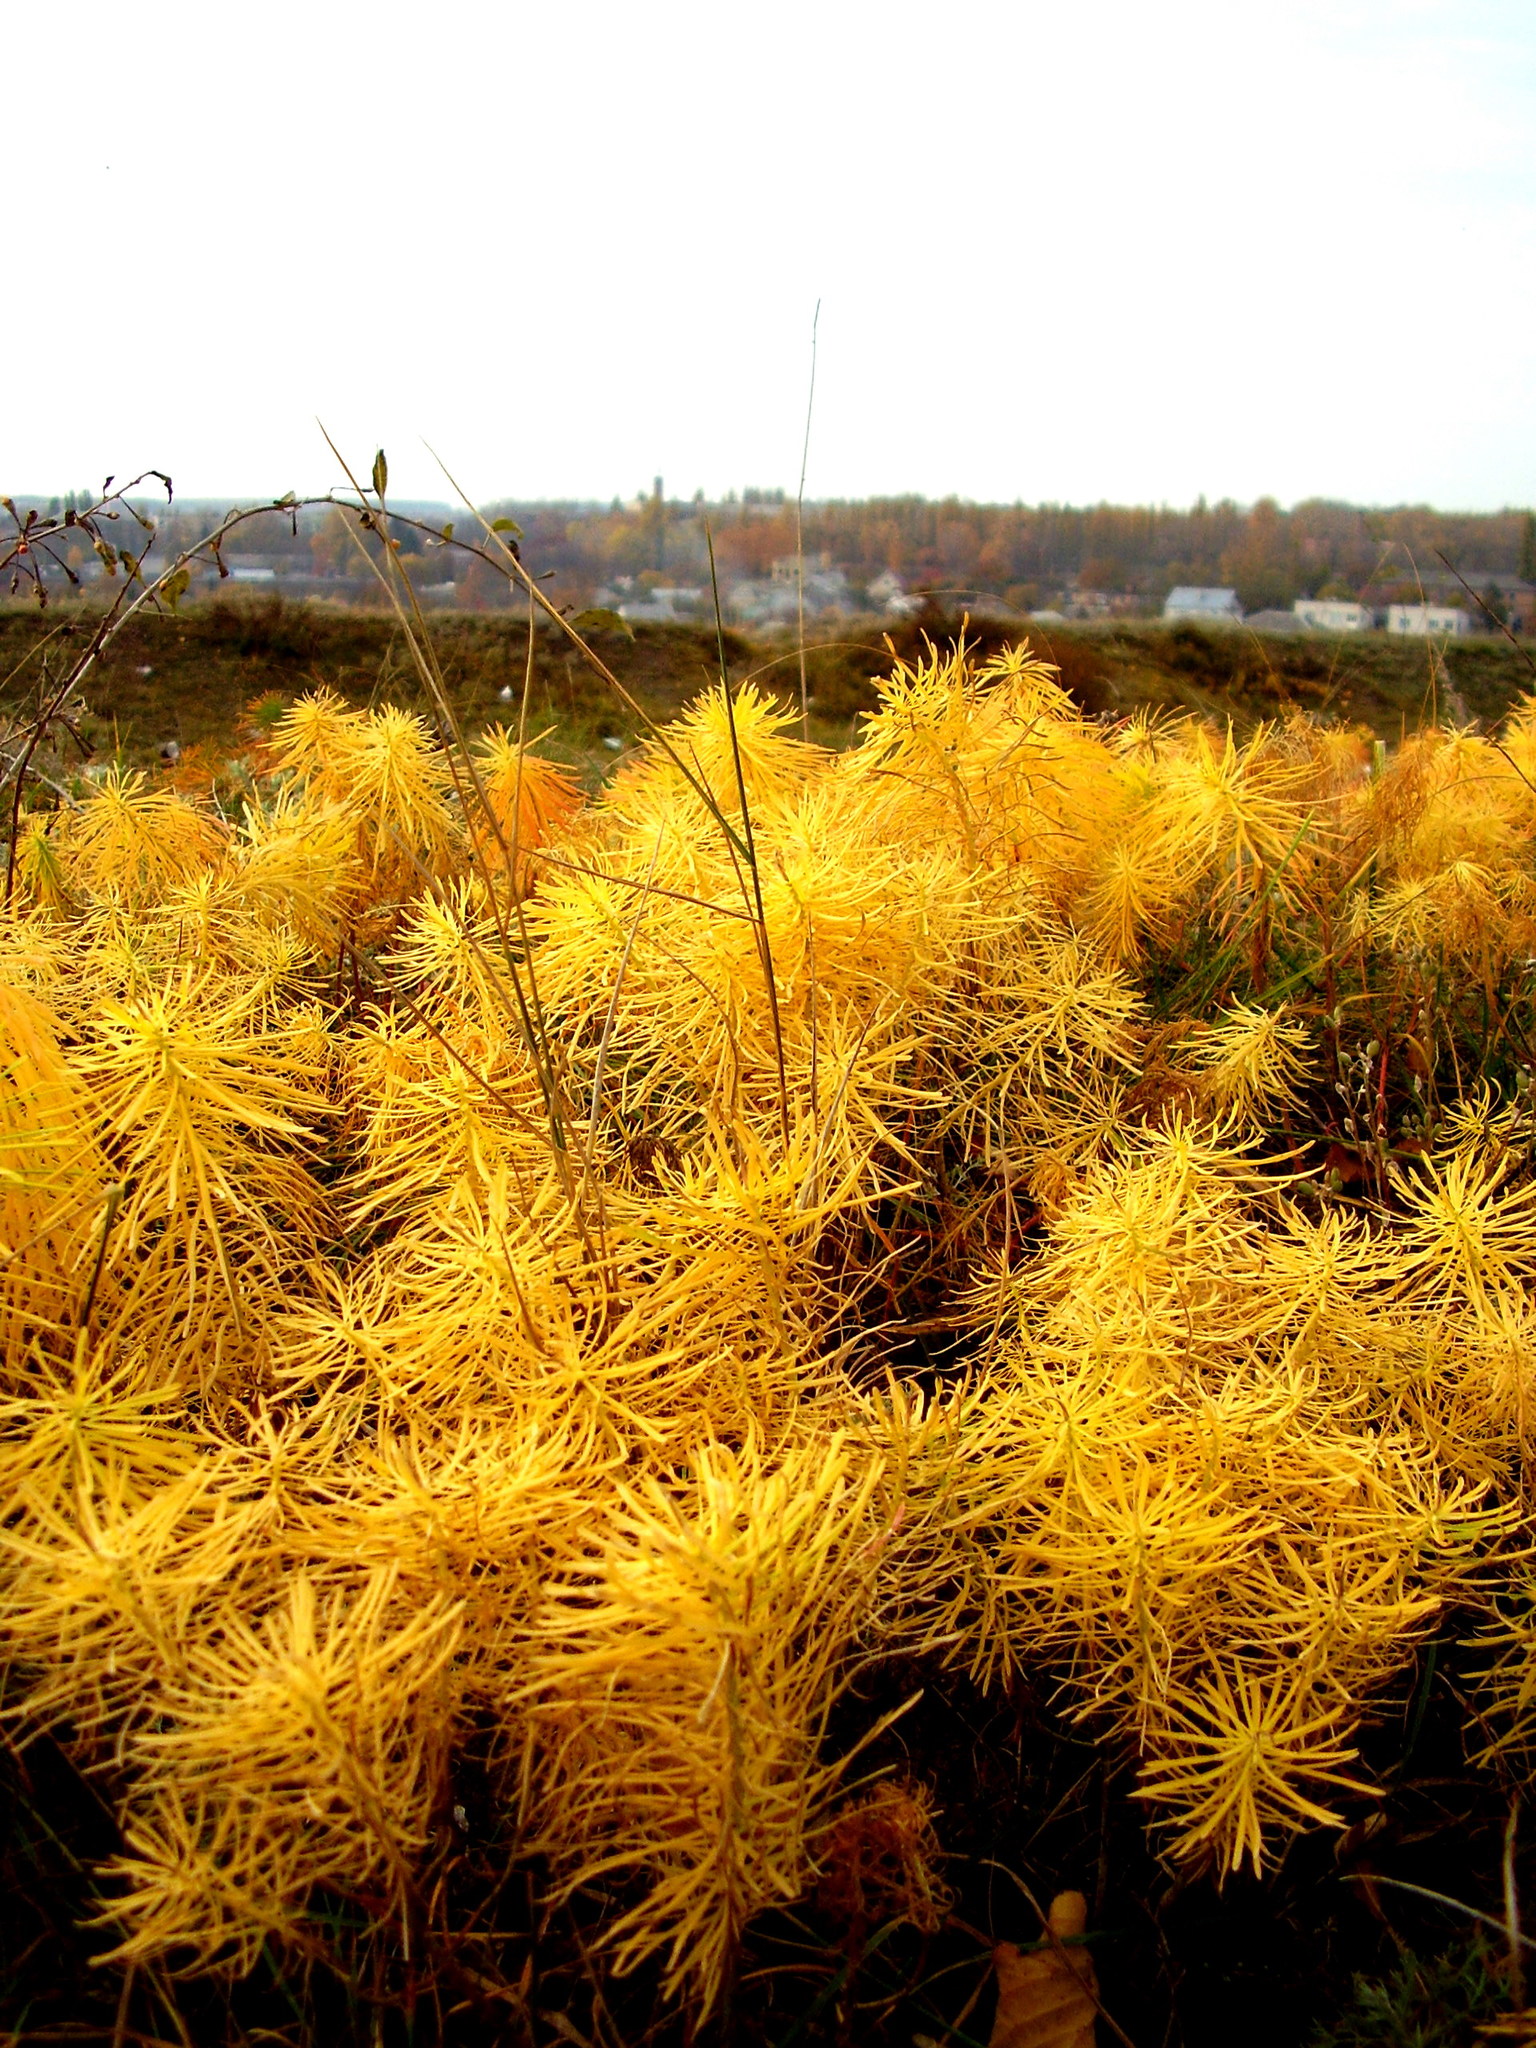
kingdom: Plantae
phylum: Tracheophyta
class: Magnoliopsida
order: Malpighiales
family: Euphorbiaceae
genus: Euphorbia
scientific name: Euphorbia cyparissias
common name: Cypress spurge
